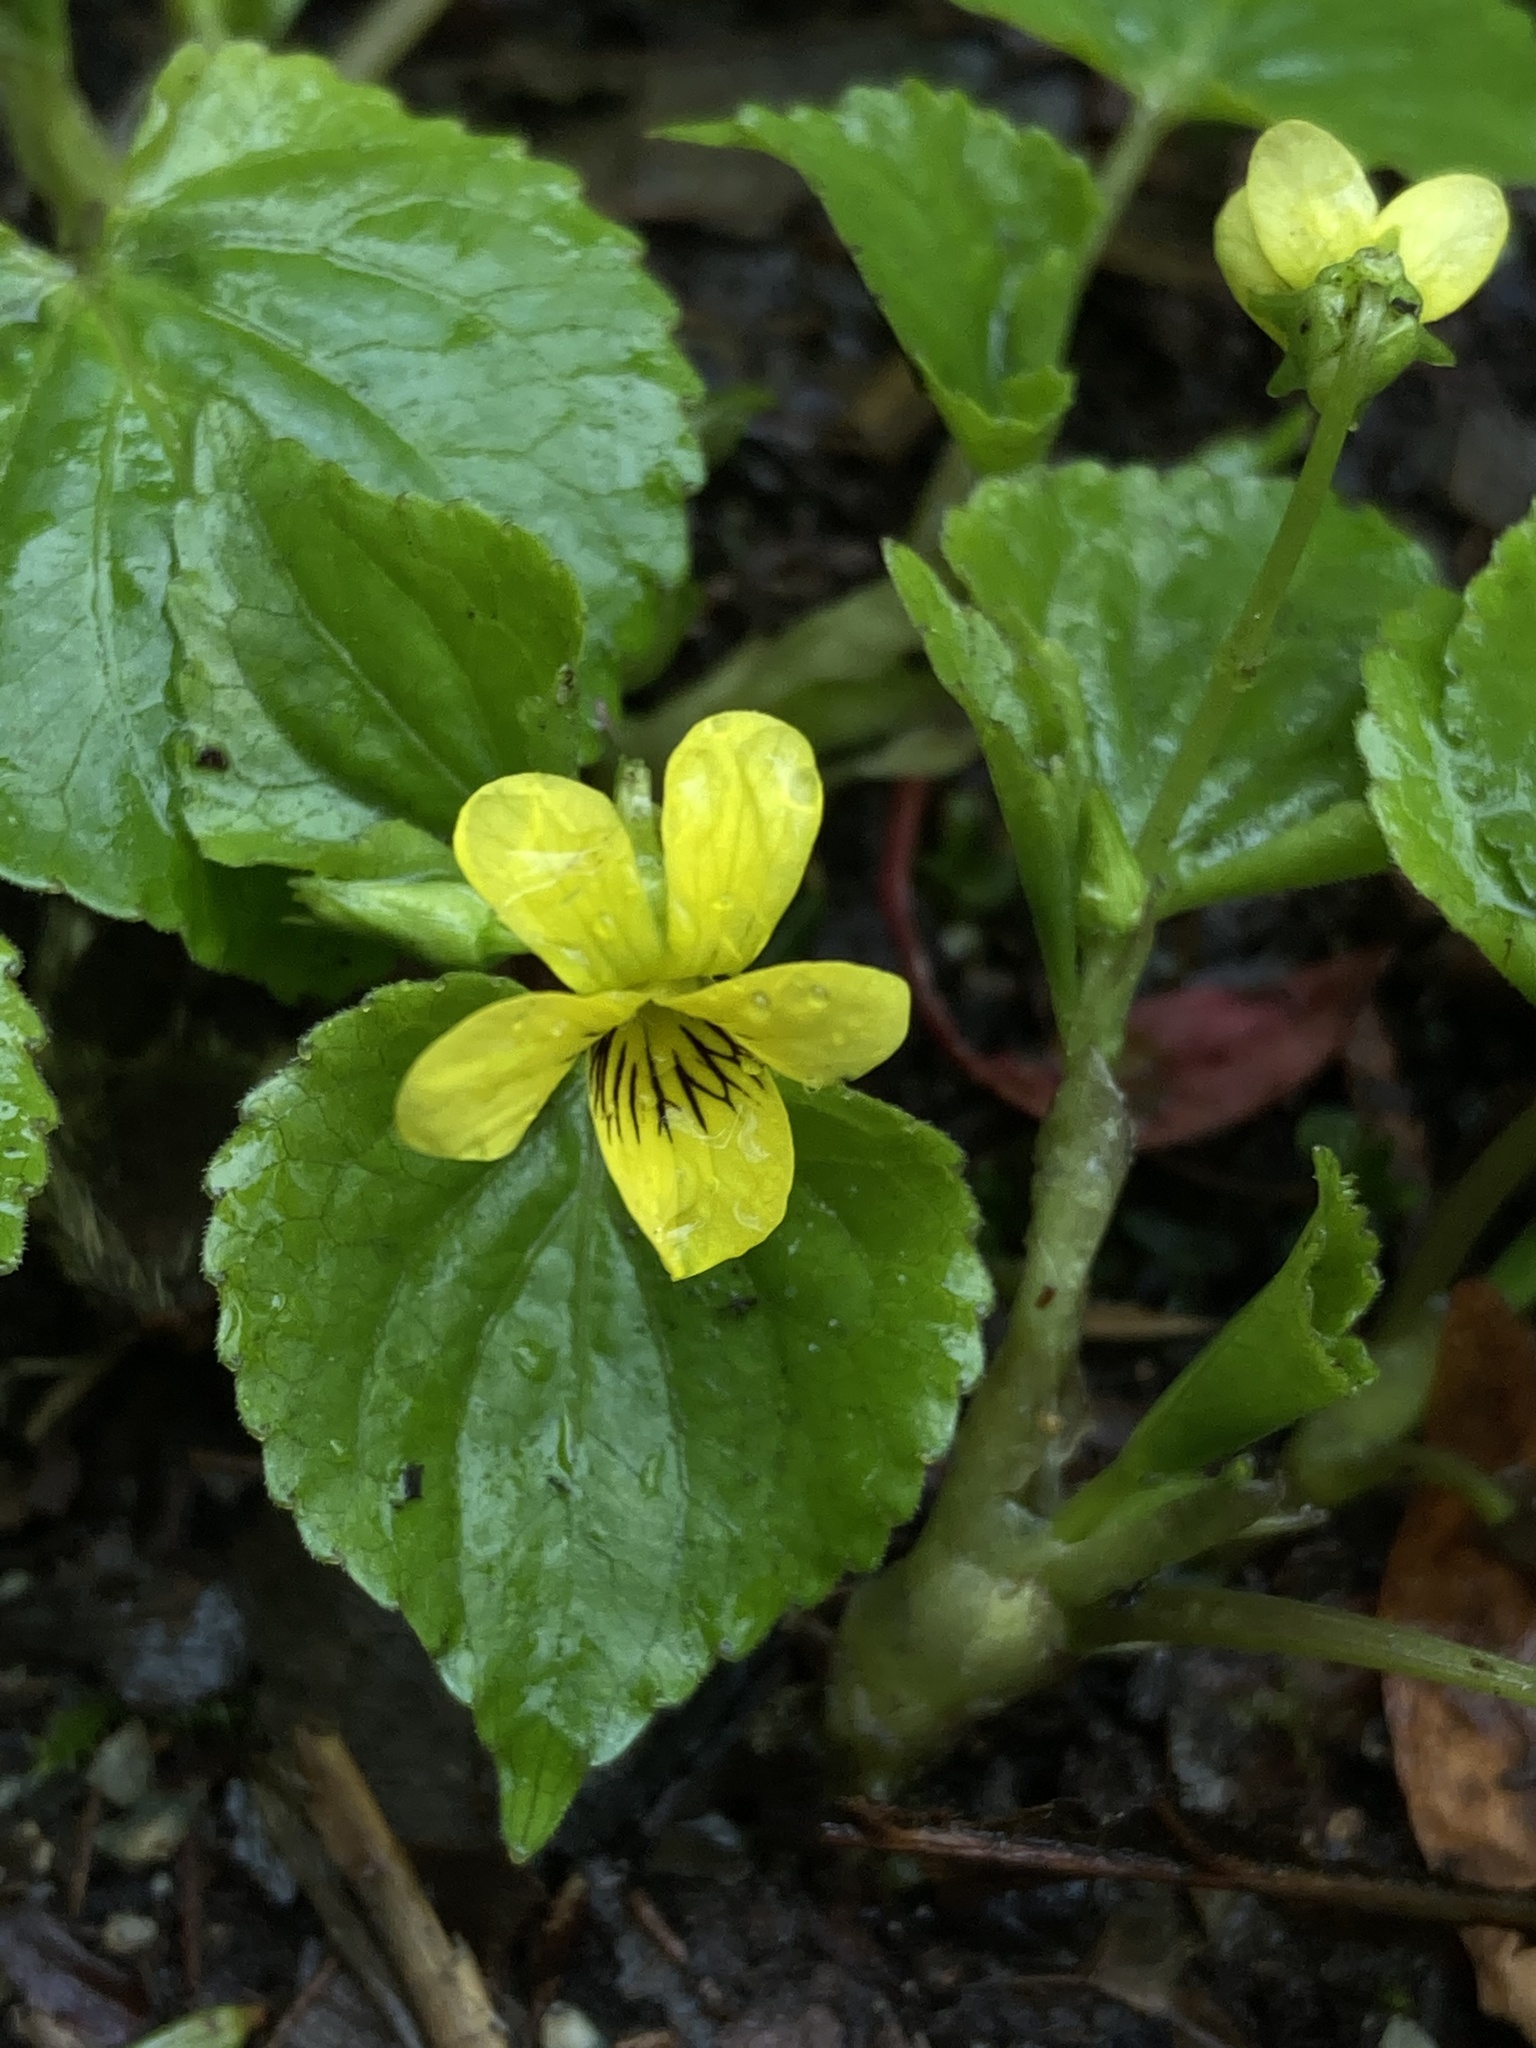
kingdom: Plantae
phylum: Tracheophyta
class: Magnoliopsida
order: Malpighiales
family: Violaceae
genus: Viola
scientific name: Viola glabella
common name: Stream violet
